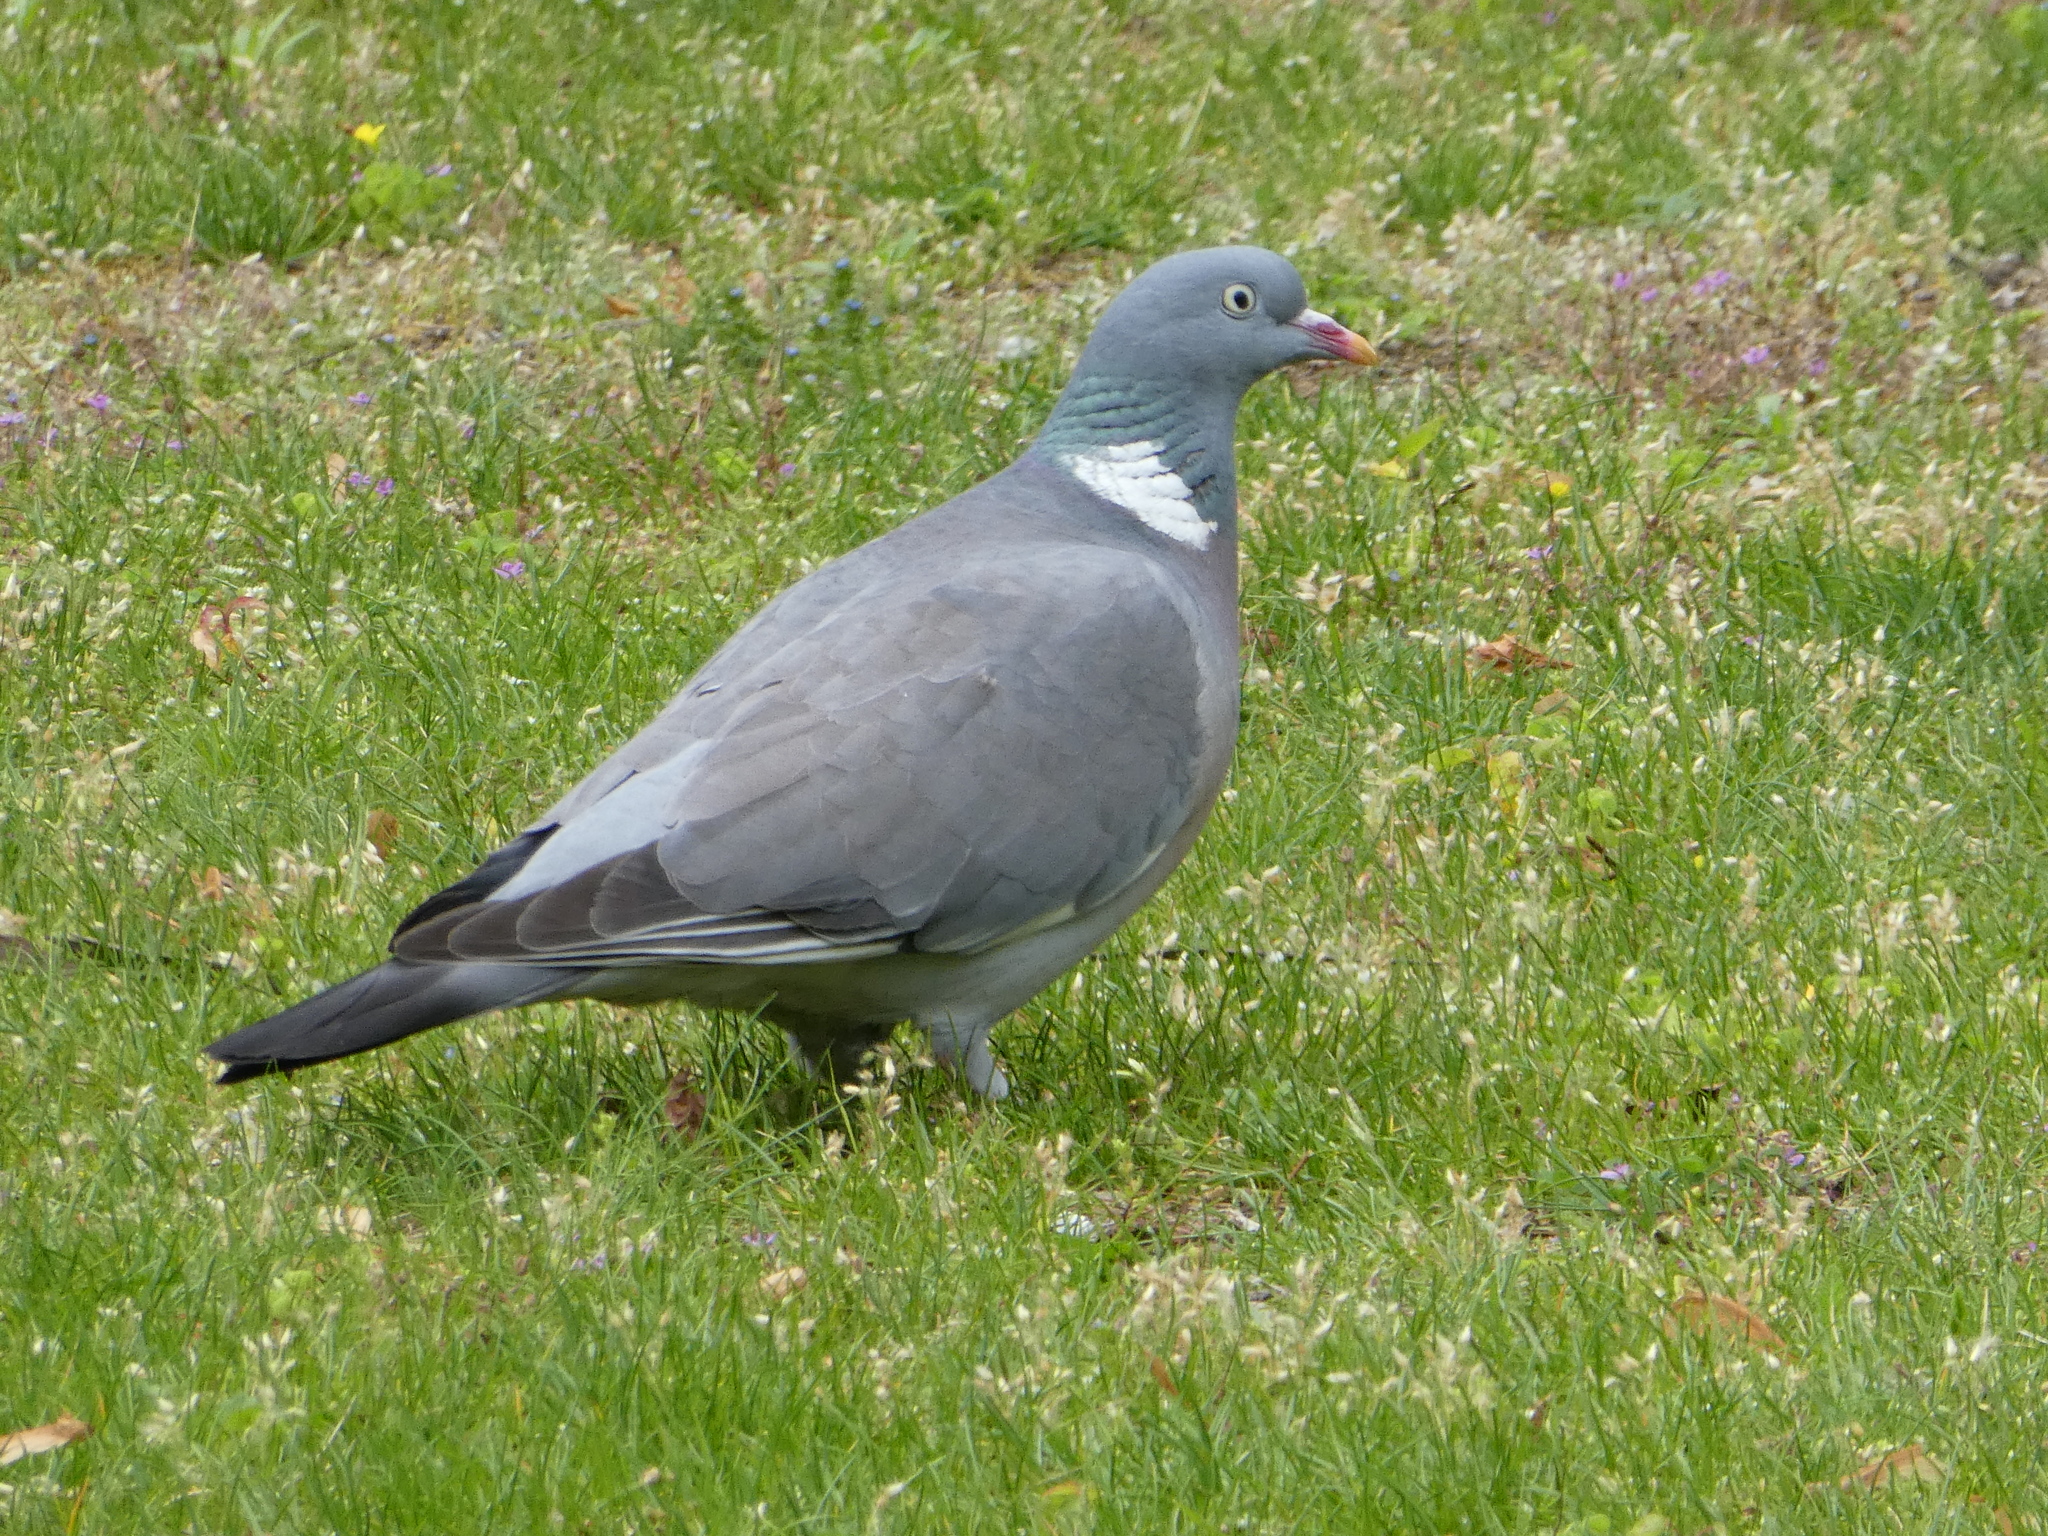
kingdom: Animalia
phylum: Chordata
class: Aves
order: Columbiformes
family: Columbidae
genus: Columba
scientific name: Columba palumbus
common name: Common wood pigeon
